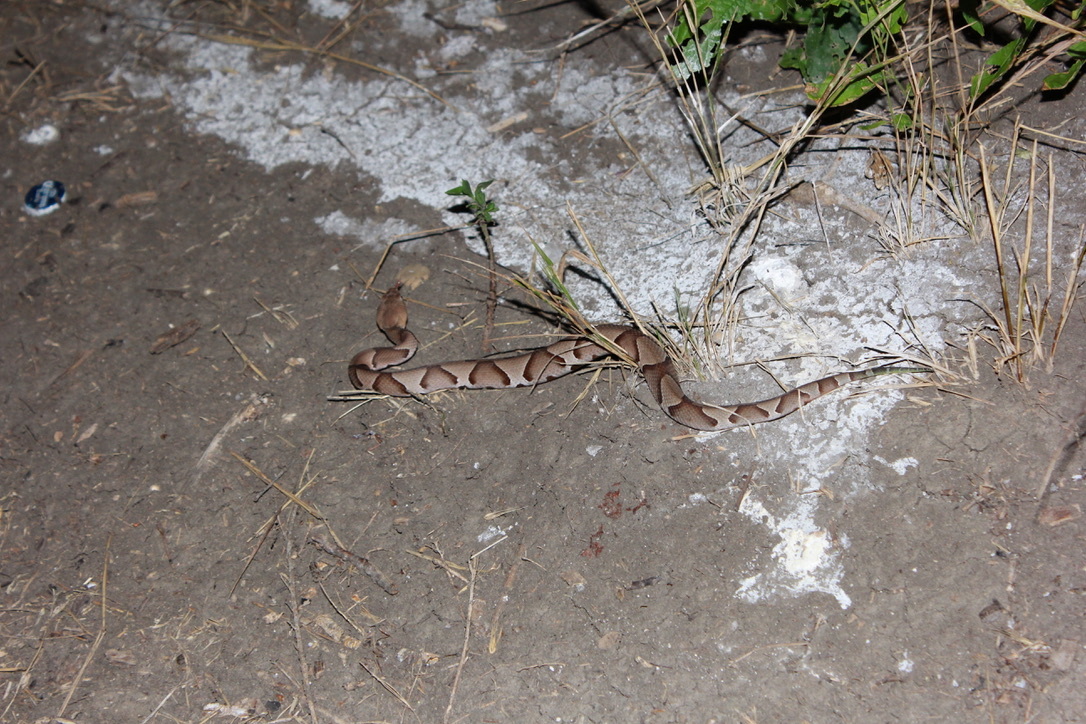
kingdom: Animalia
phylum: Chordata
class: Squamata
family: Viperidae
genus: Agkistrodon
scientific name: Agkistrodon laticinctus
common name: Broad-banded copperhead
